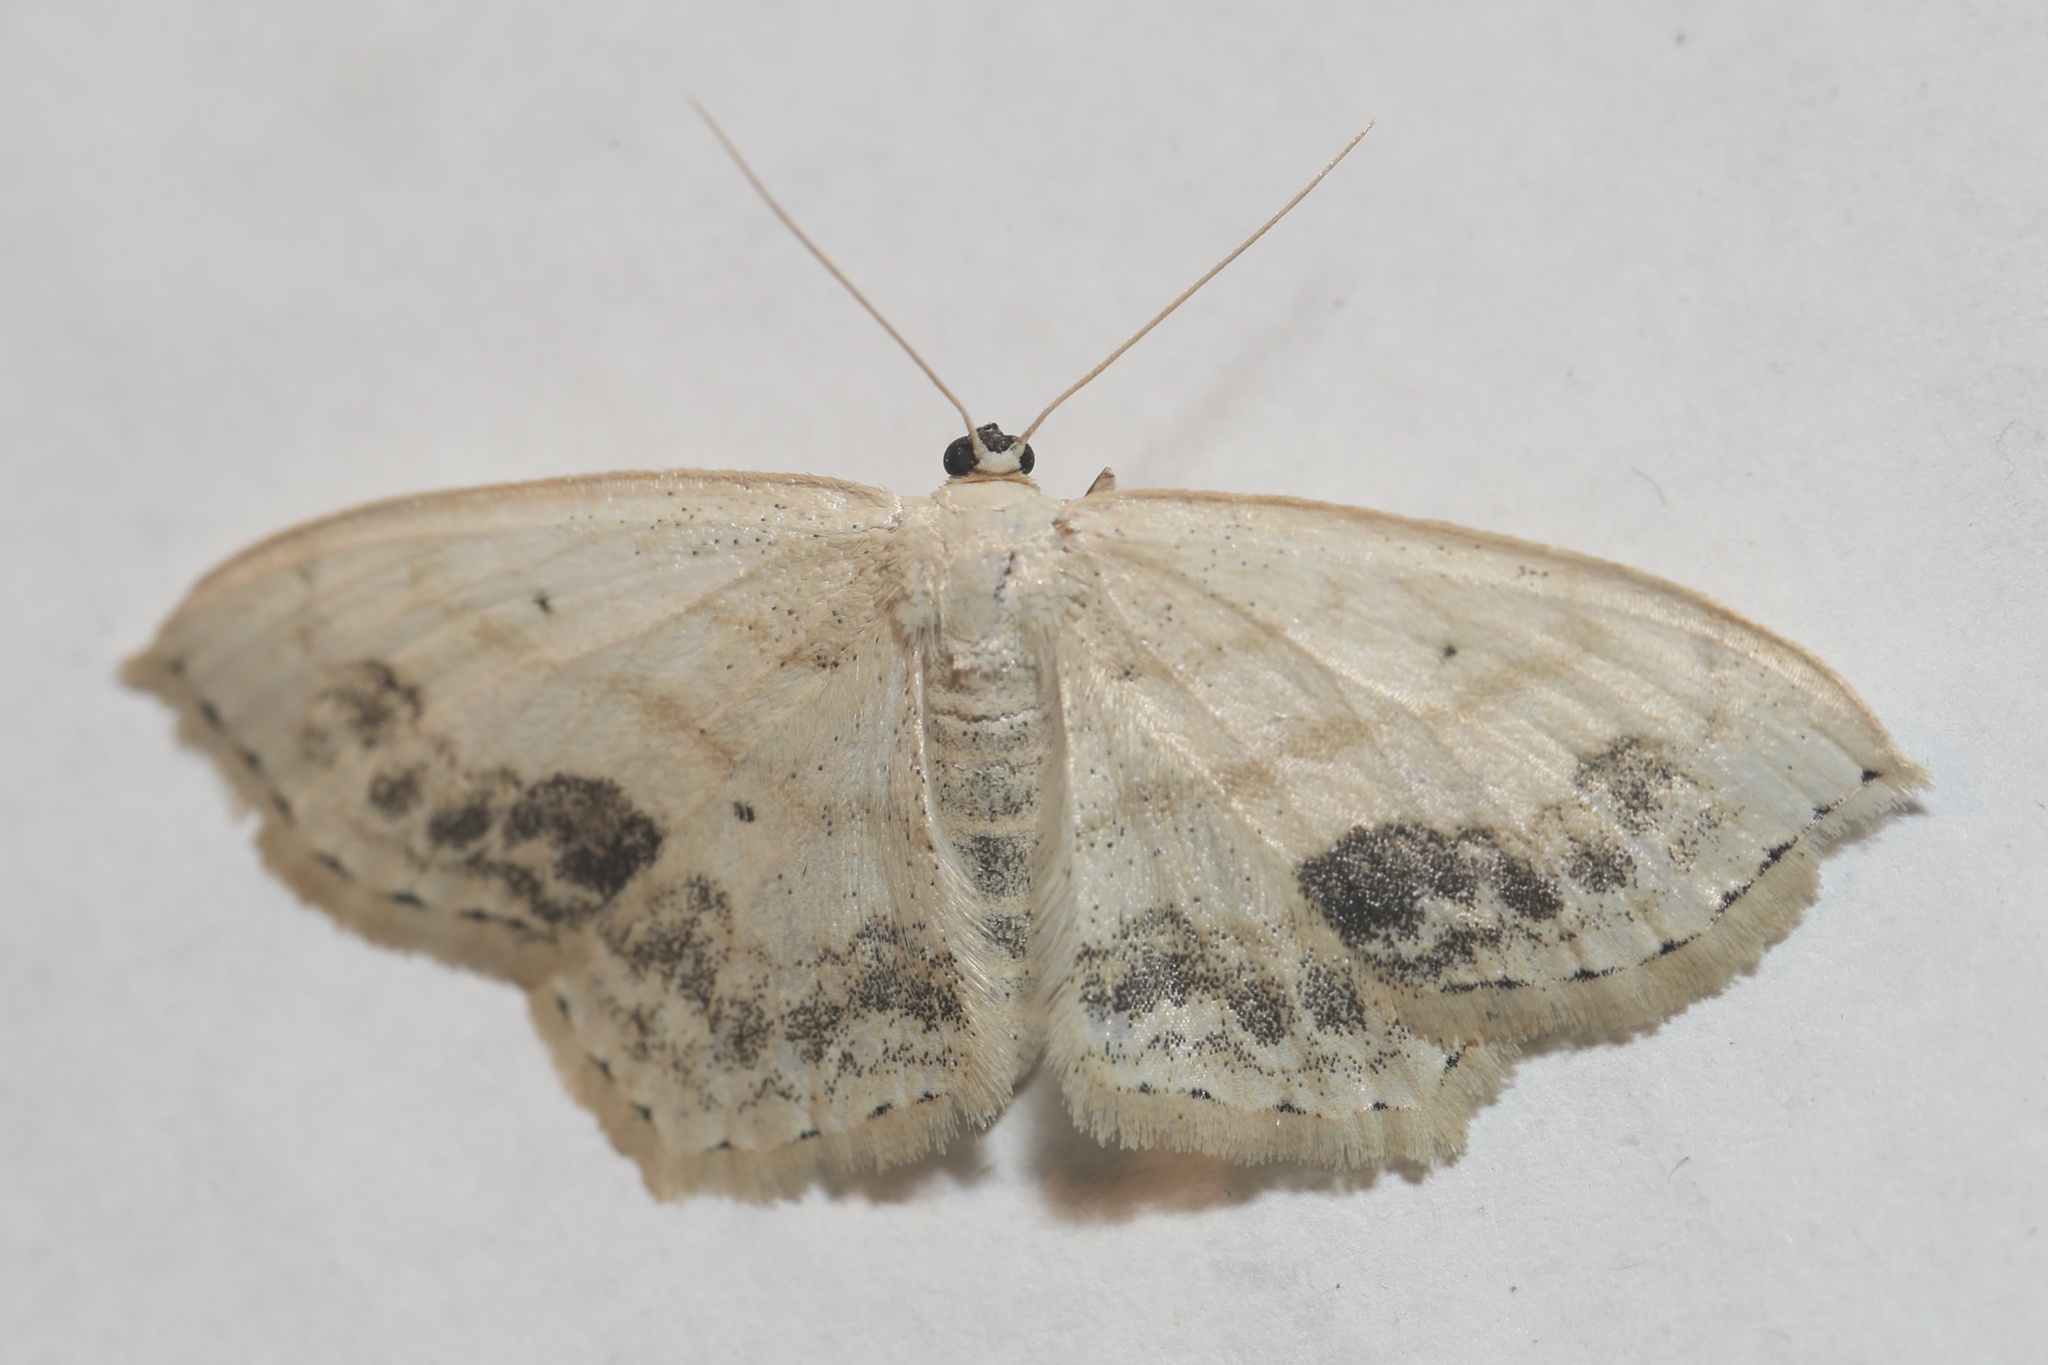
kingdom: Animalia
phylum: Arthropoda
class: Insecta
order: Lepidoptera
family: Geometridae
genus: Scopula
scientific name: Scopula limboundata
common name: Large lace border
